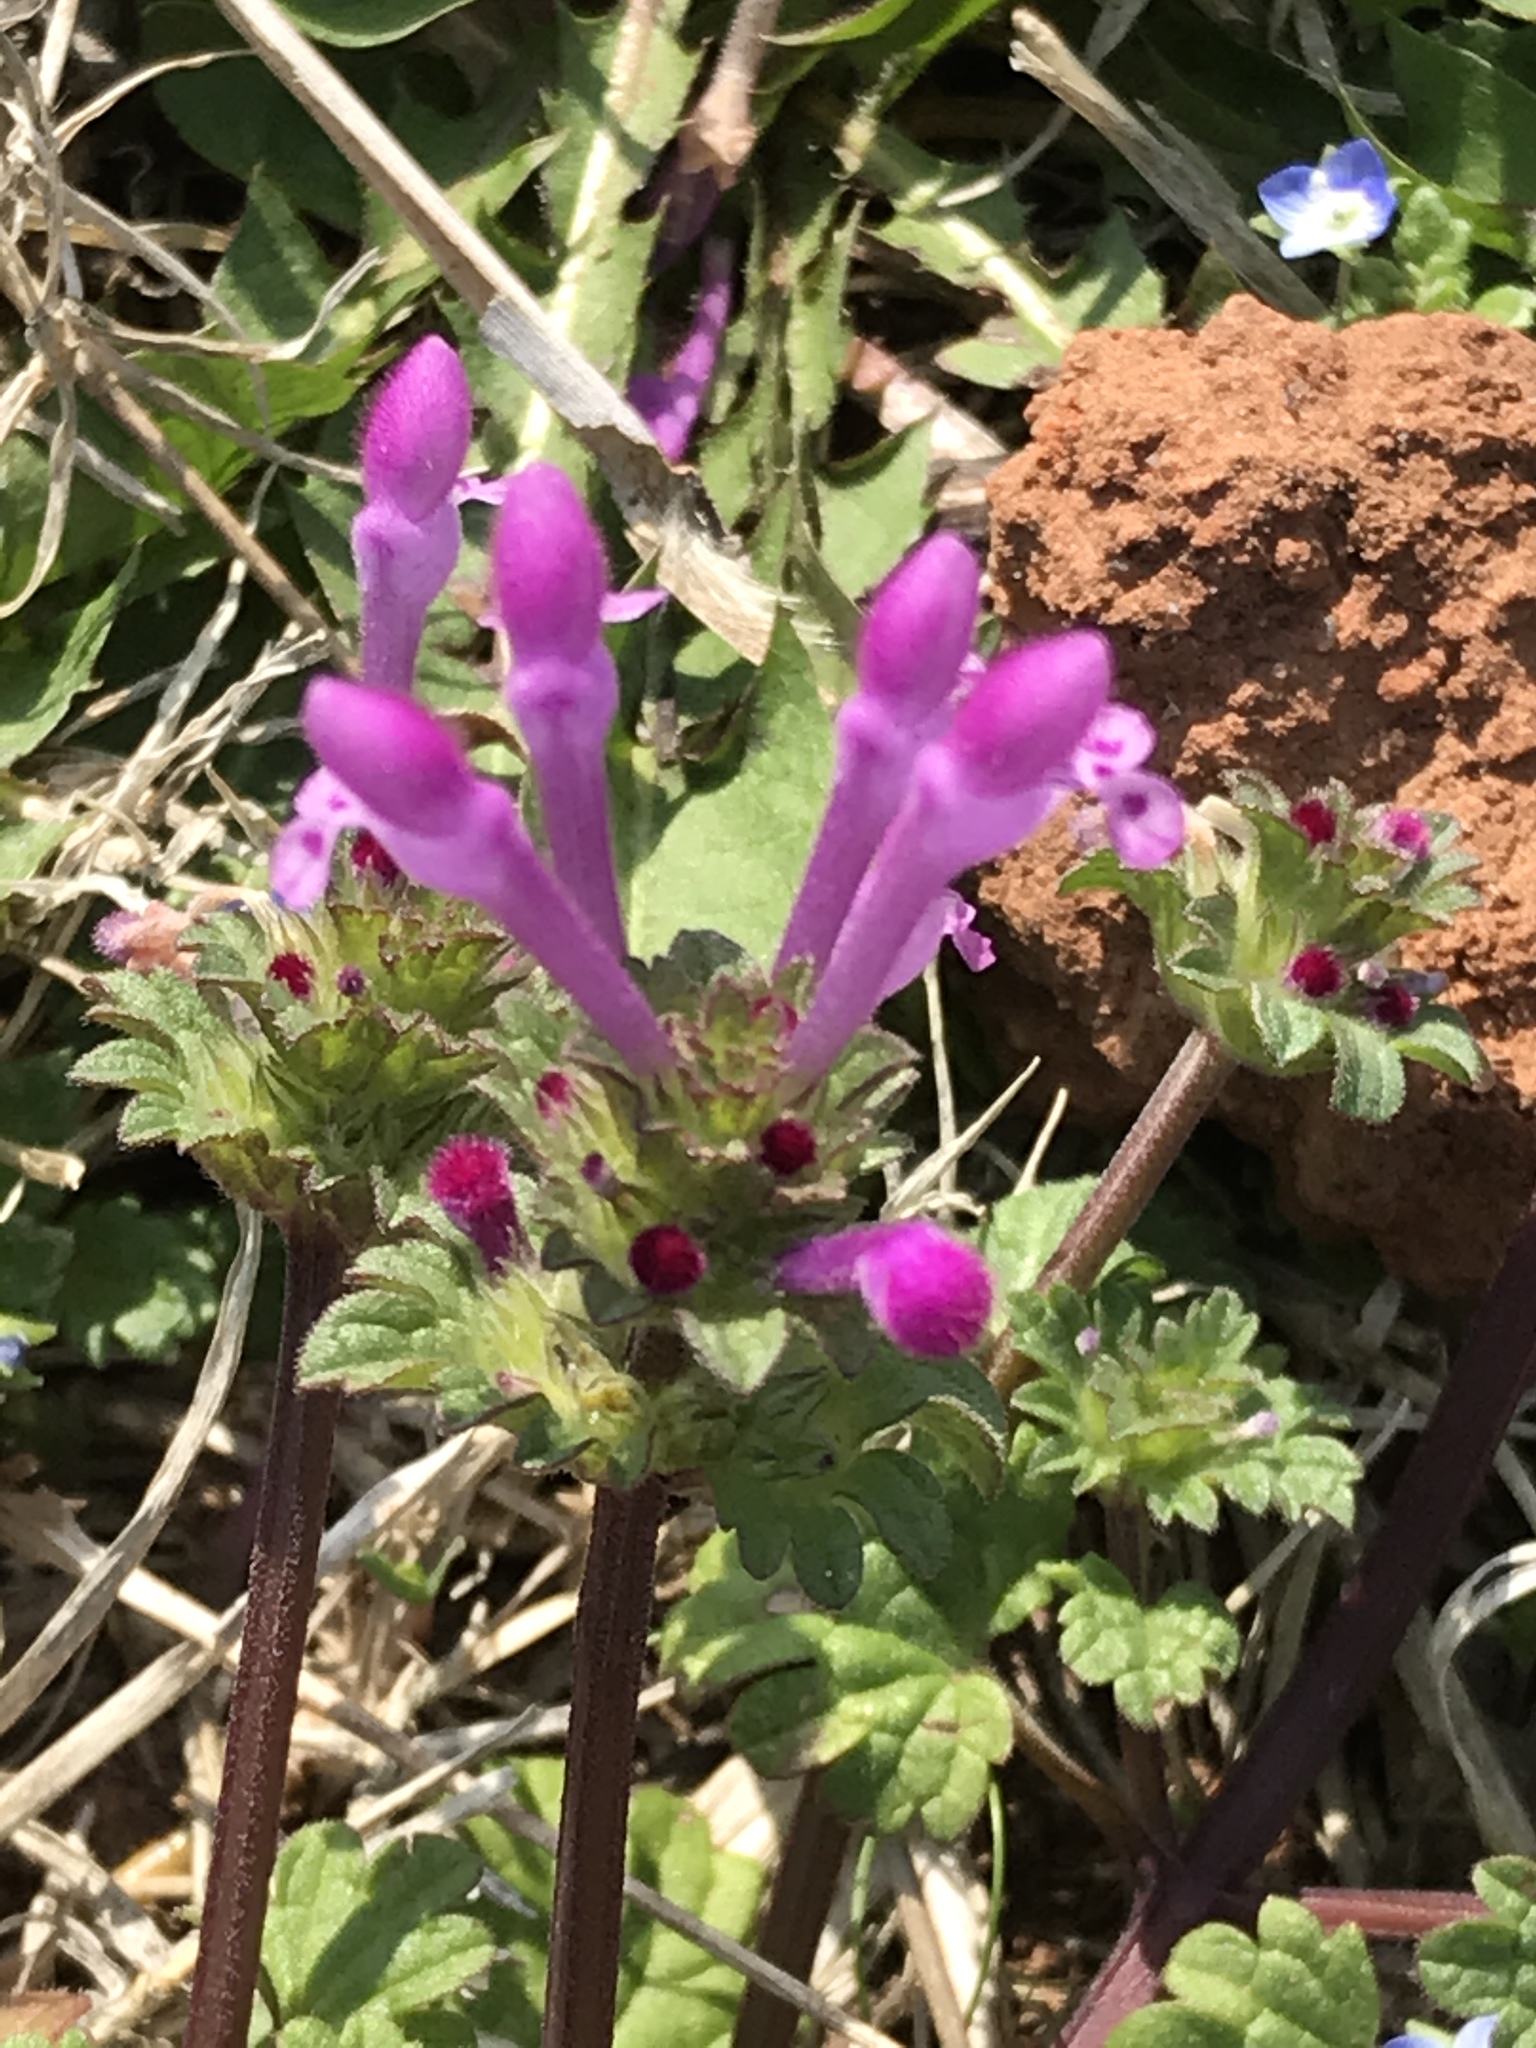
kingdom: Plantae
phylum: Tracheophyta
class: Magnoliopsida
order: Lamiales
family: Lamiaceae
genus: Lamium
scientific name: Lamium amplexicaule
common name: Henbit dead-nettle
